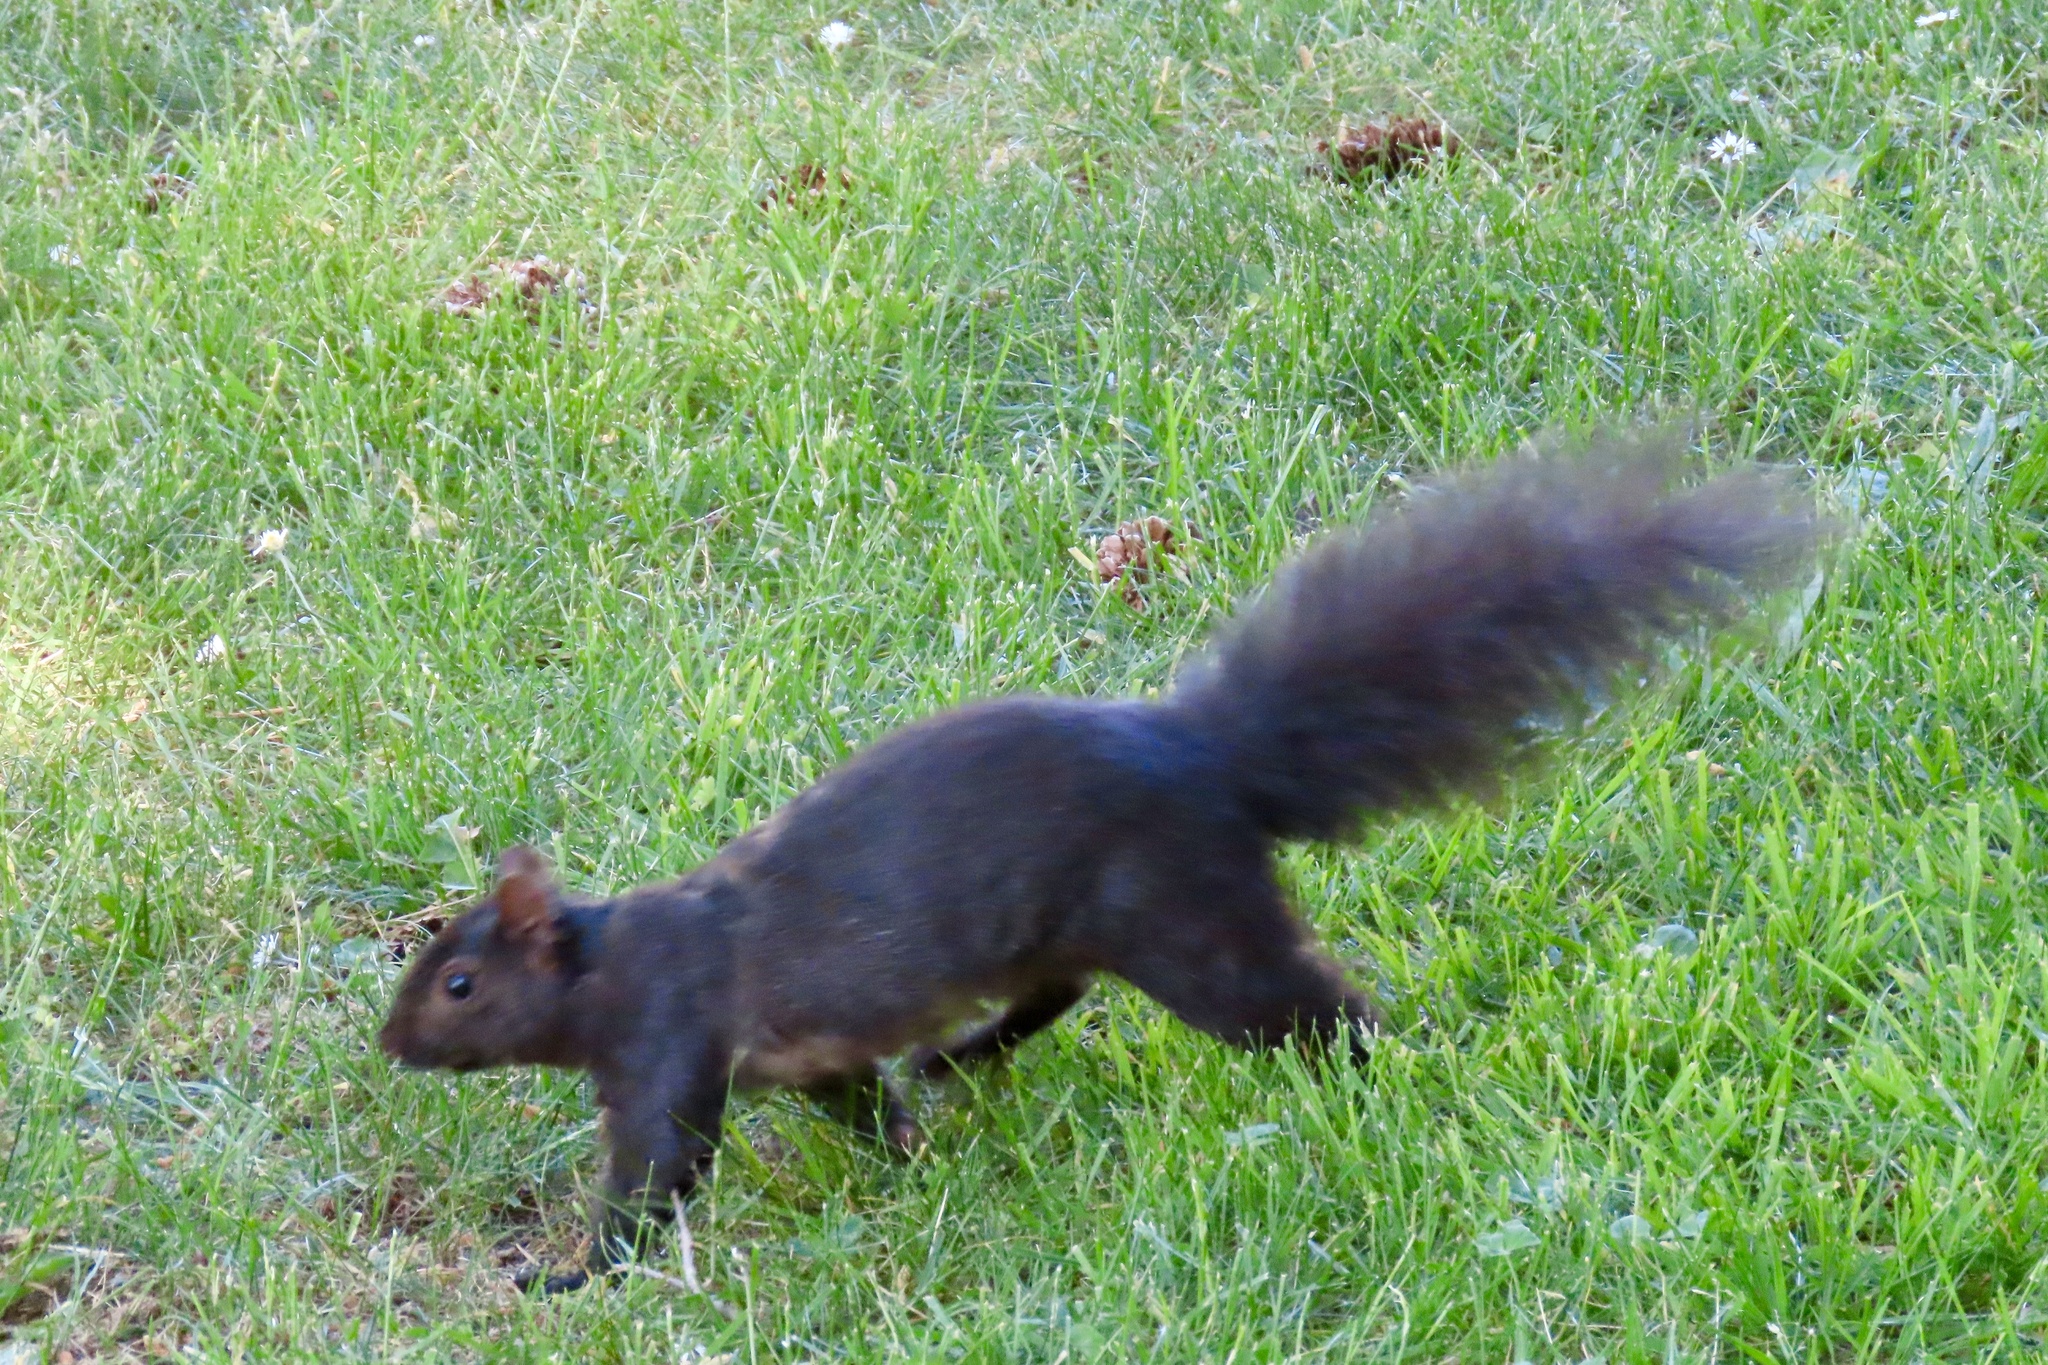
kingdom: Animalia
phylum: Chordata
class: Mammalia
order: Rodentia
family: Sciuridae
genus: Sciurus
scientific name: Sciurus carolinensis
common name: Eastern gray squirrel
